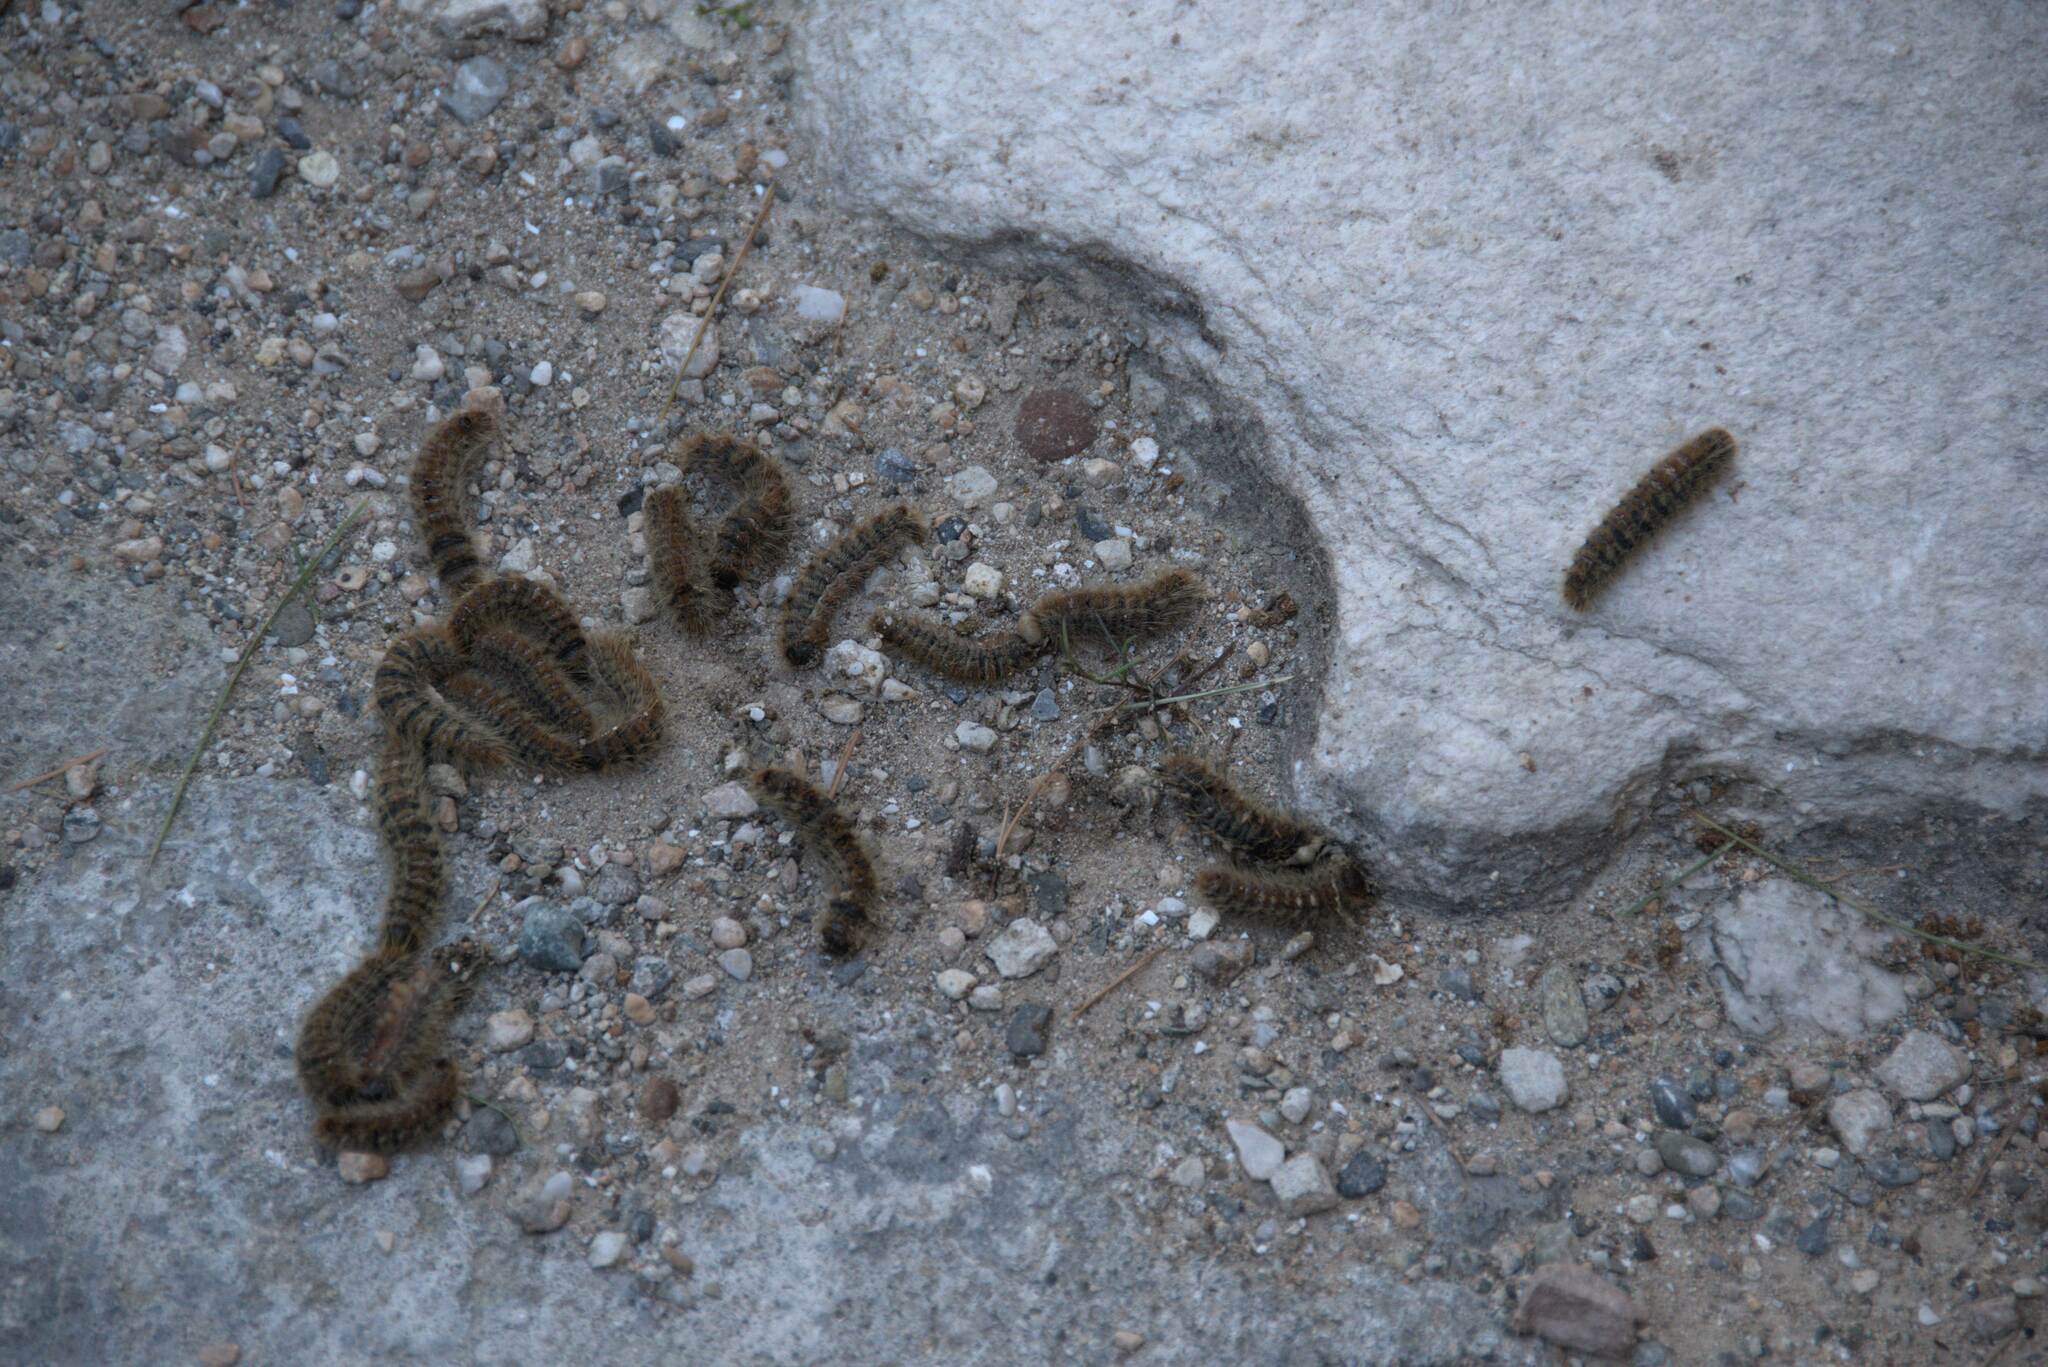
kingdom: Animalia
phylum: Arthropoda
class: Insecta
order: Lepidoptera
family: Notodontidae
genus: Thaumetopoea
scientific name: Thaumetopoea
